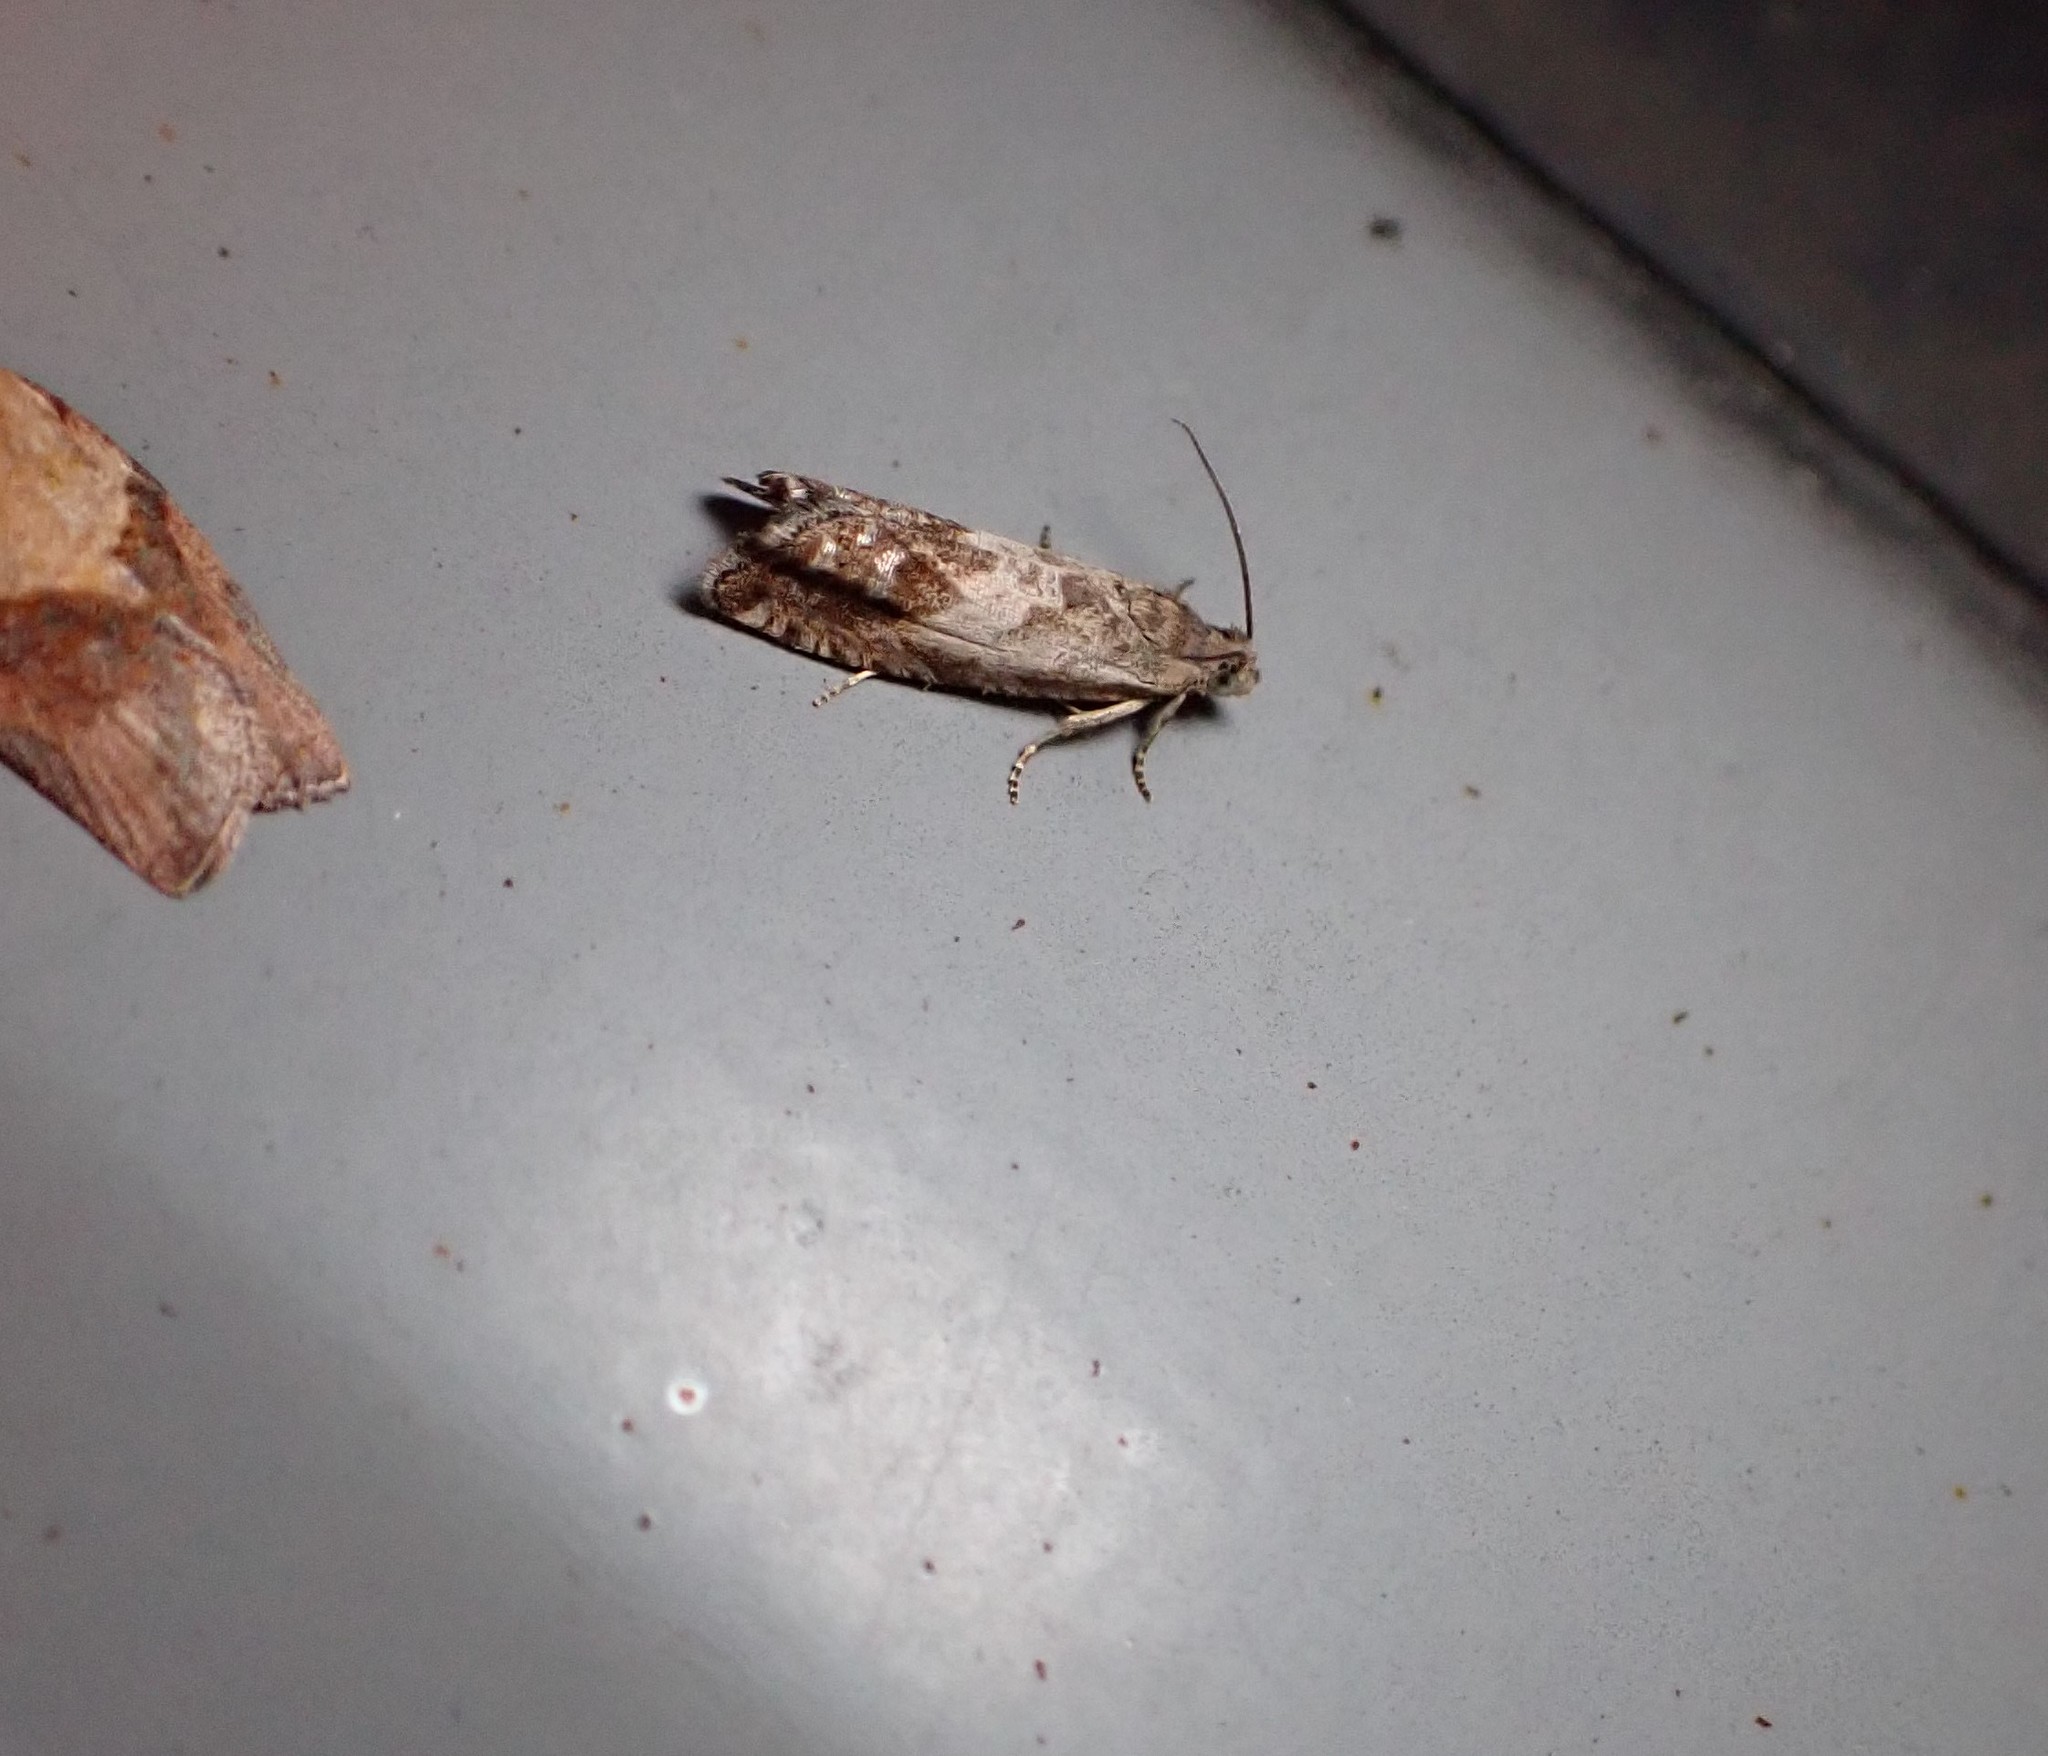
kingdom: Animalia
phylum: Arthropoda
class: Insecta
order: Lepidoptera
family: Tortricidae
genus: Cydia
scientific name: Cydia succedana
